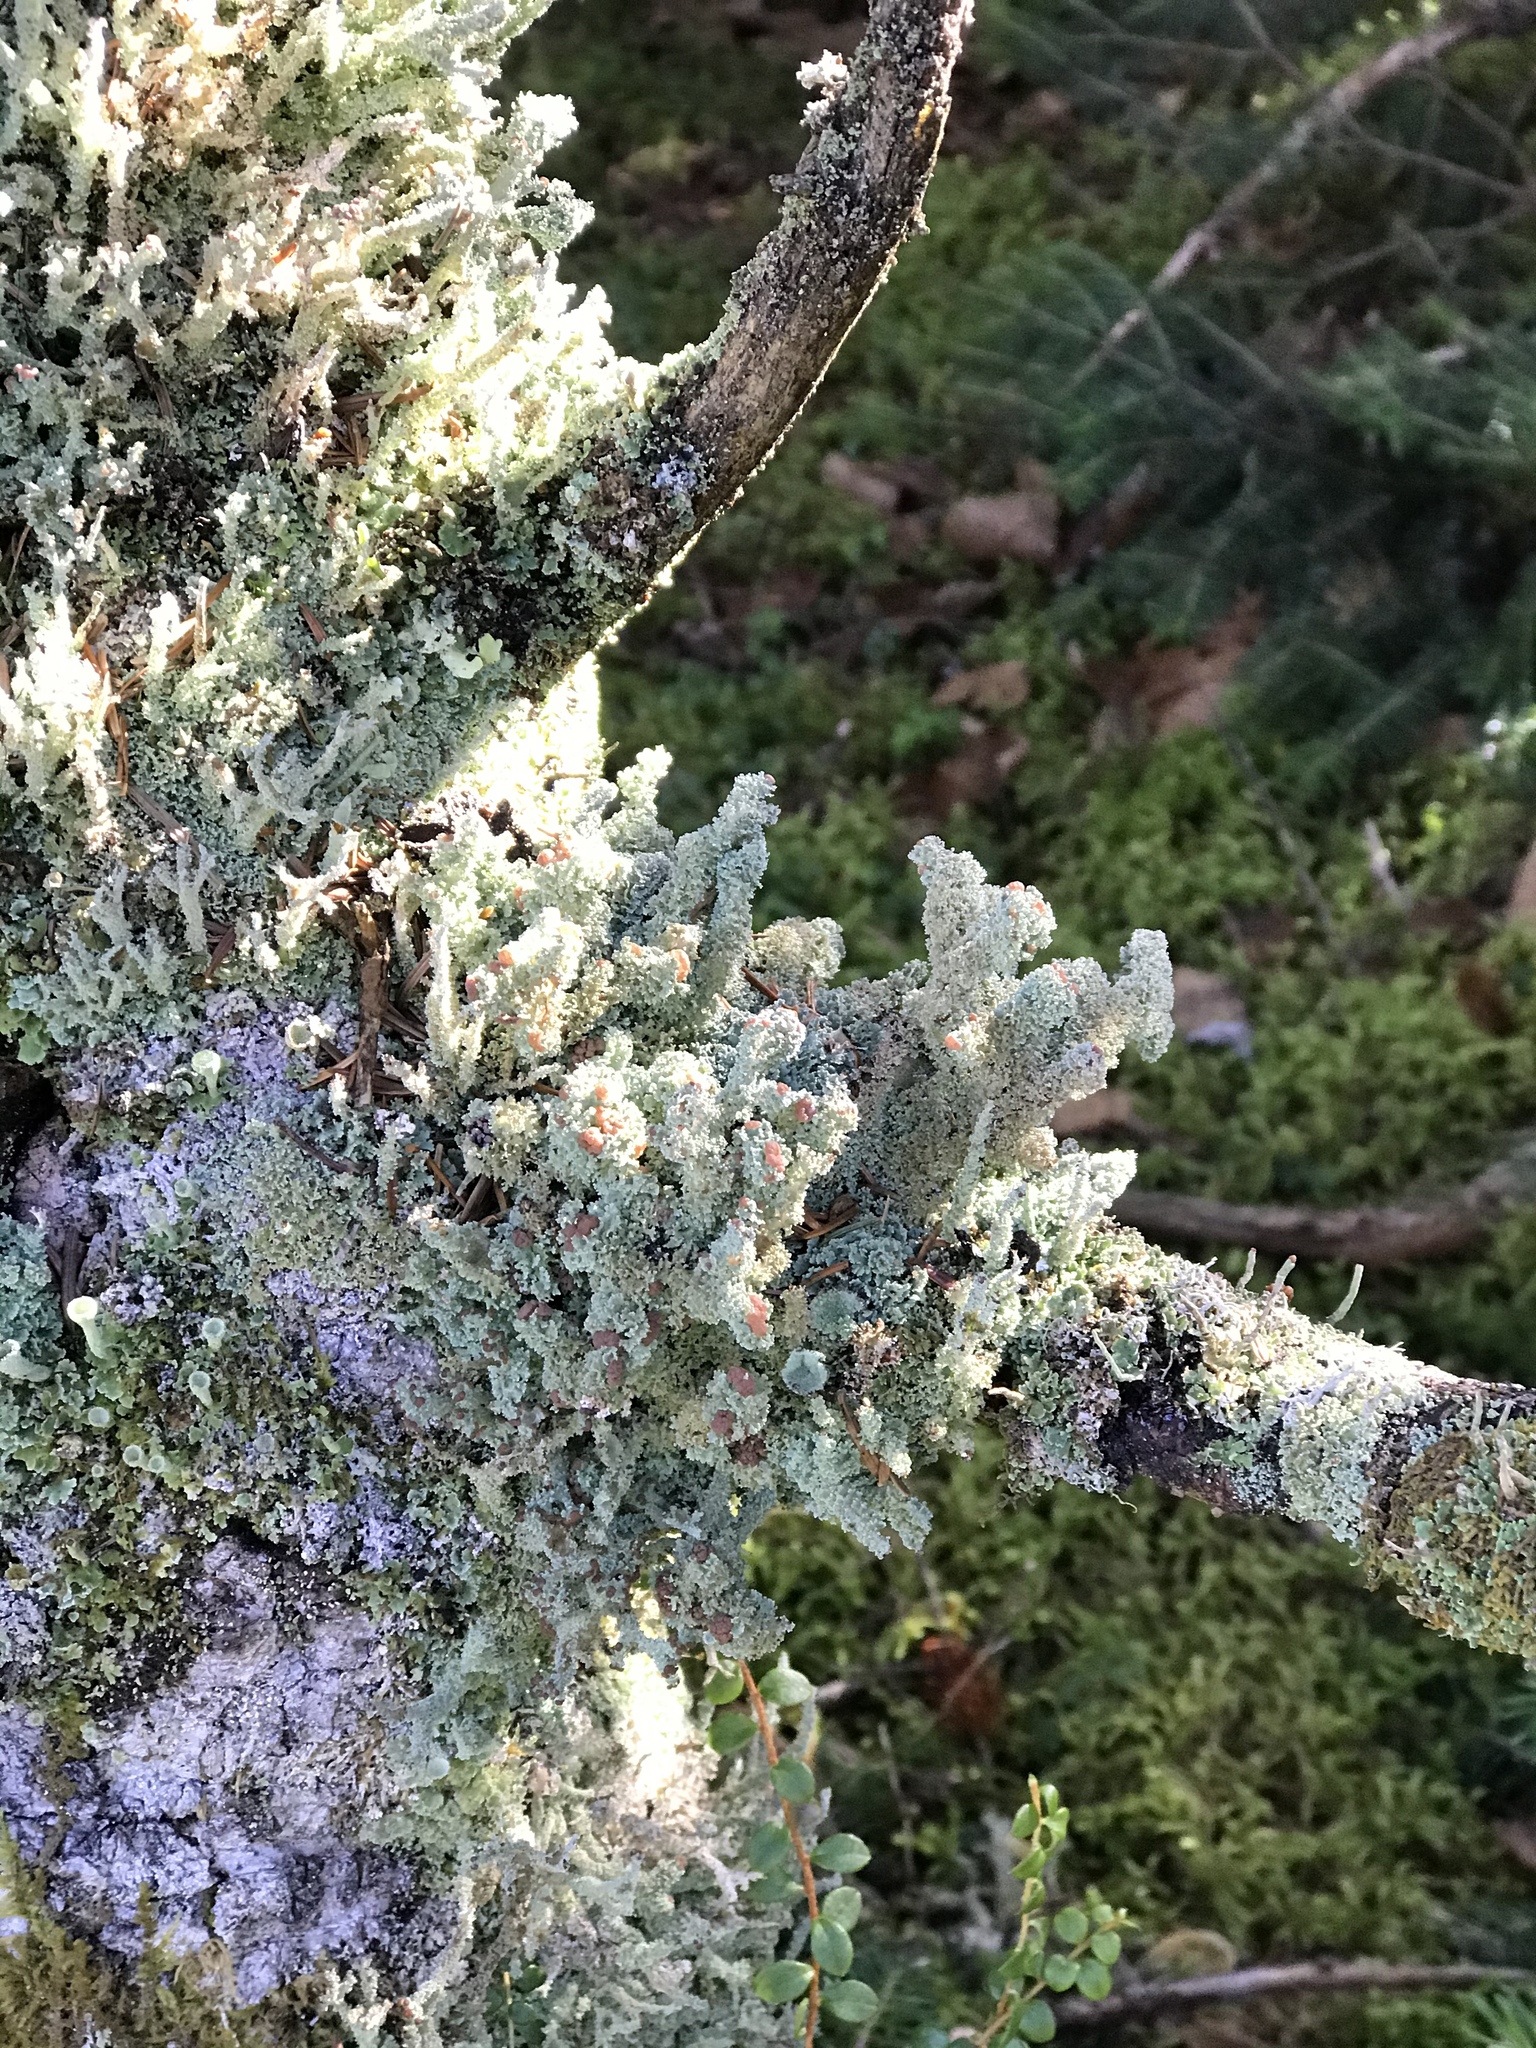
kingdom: Fungi
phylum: Ascomycota
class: Lecanoromycetes
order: Lecanorales
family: Cladoniaceae
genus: Cladonia
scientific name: Cladonia squamosa
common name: Dragon horn
